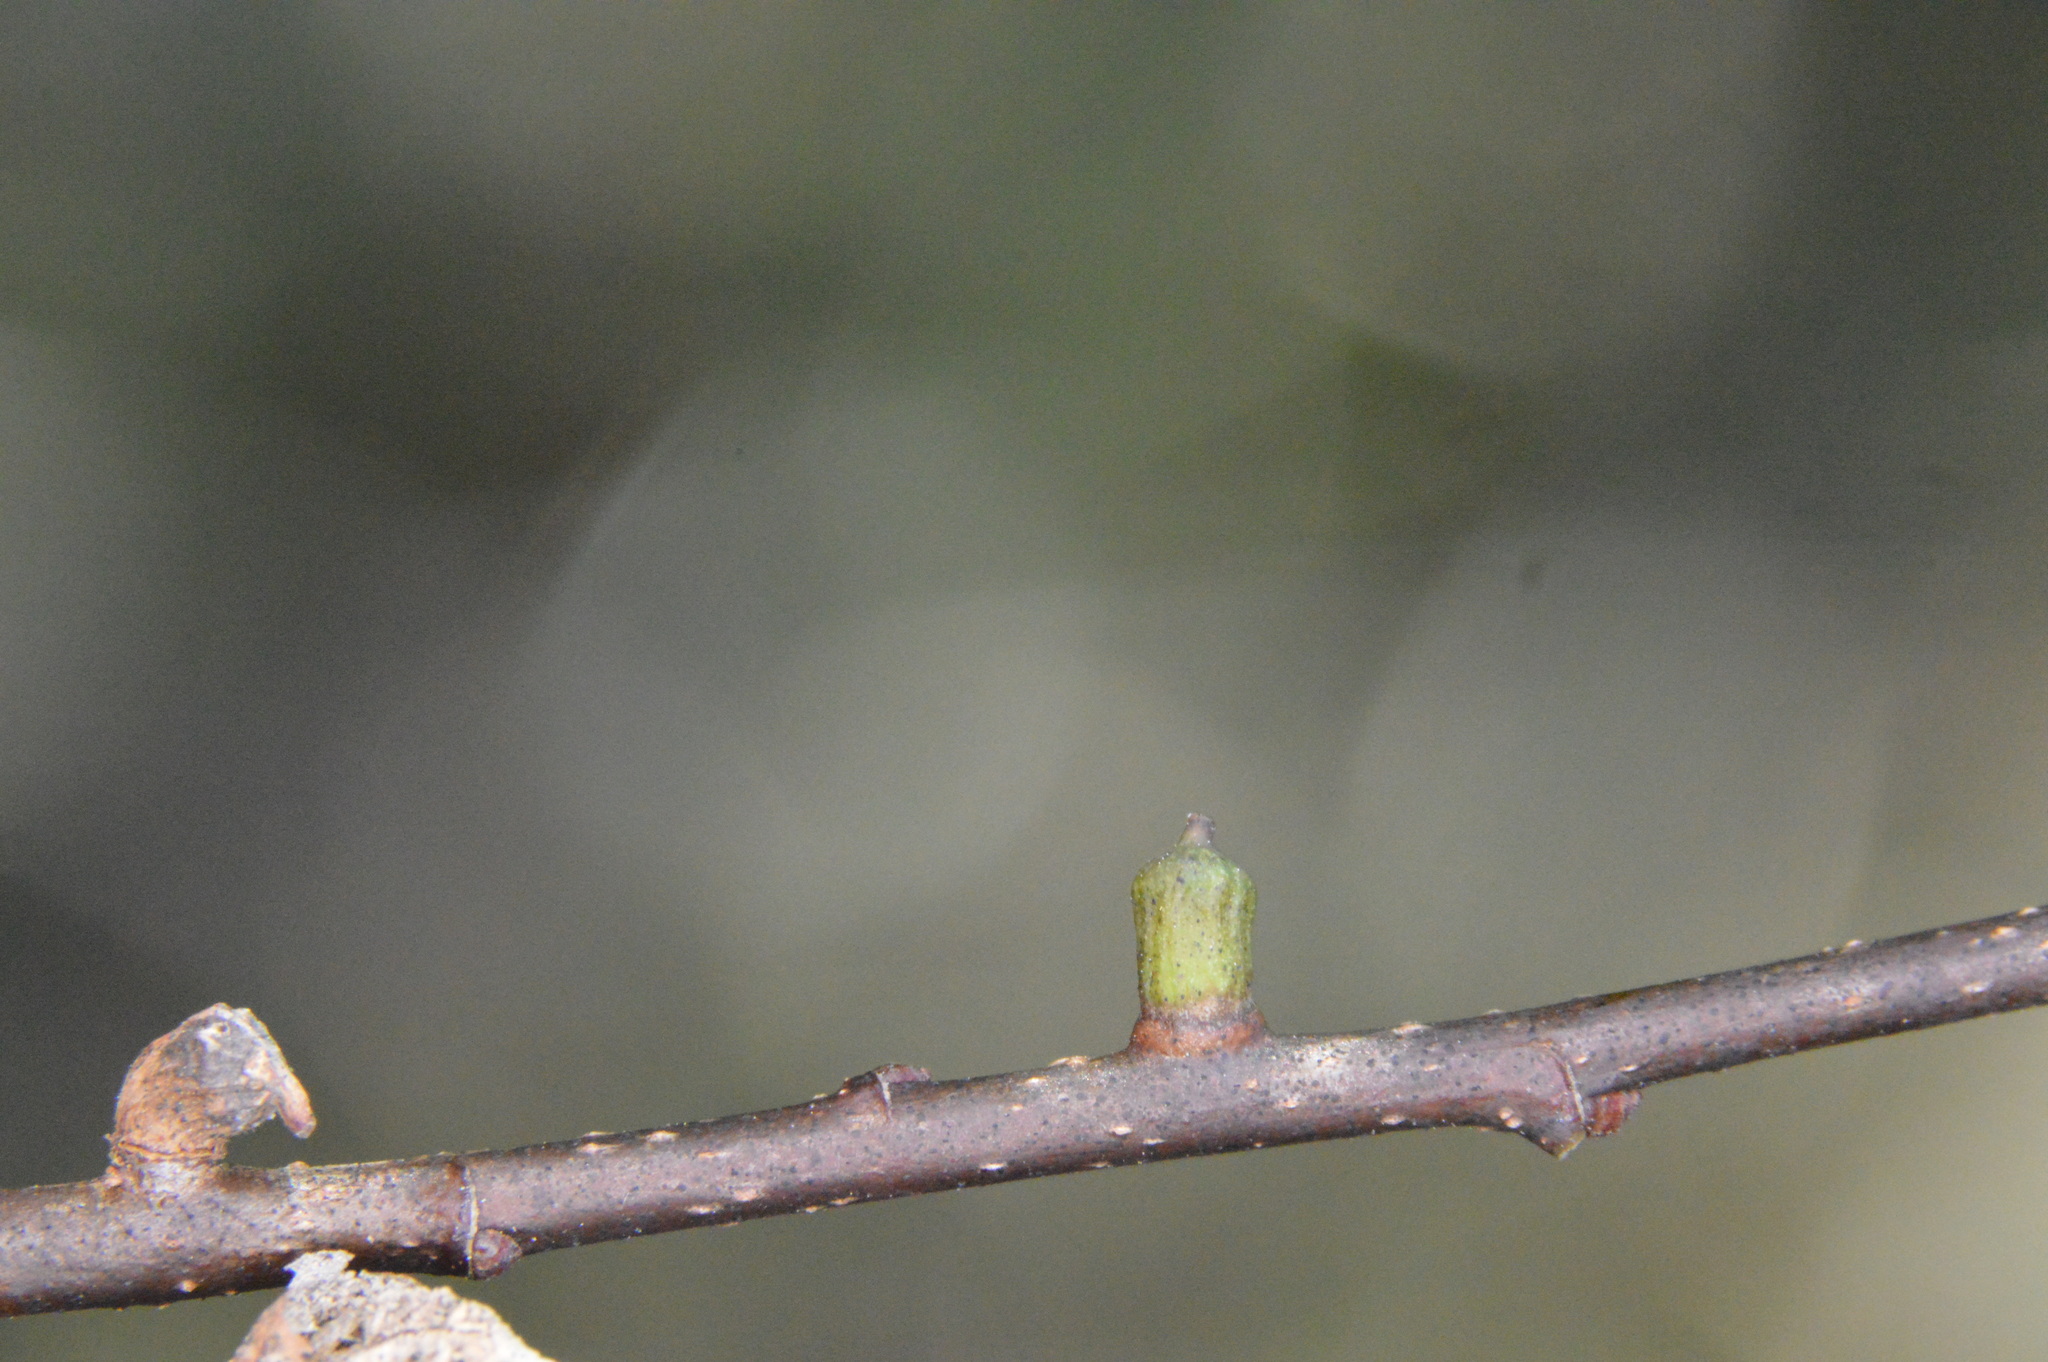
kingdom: Animalia
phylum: Arthropoda
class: Insecta
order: Diptera
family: Cecidomyiidae
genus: Celticecis
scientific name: Celticecis ramicola
